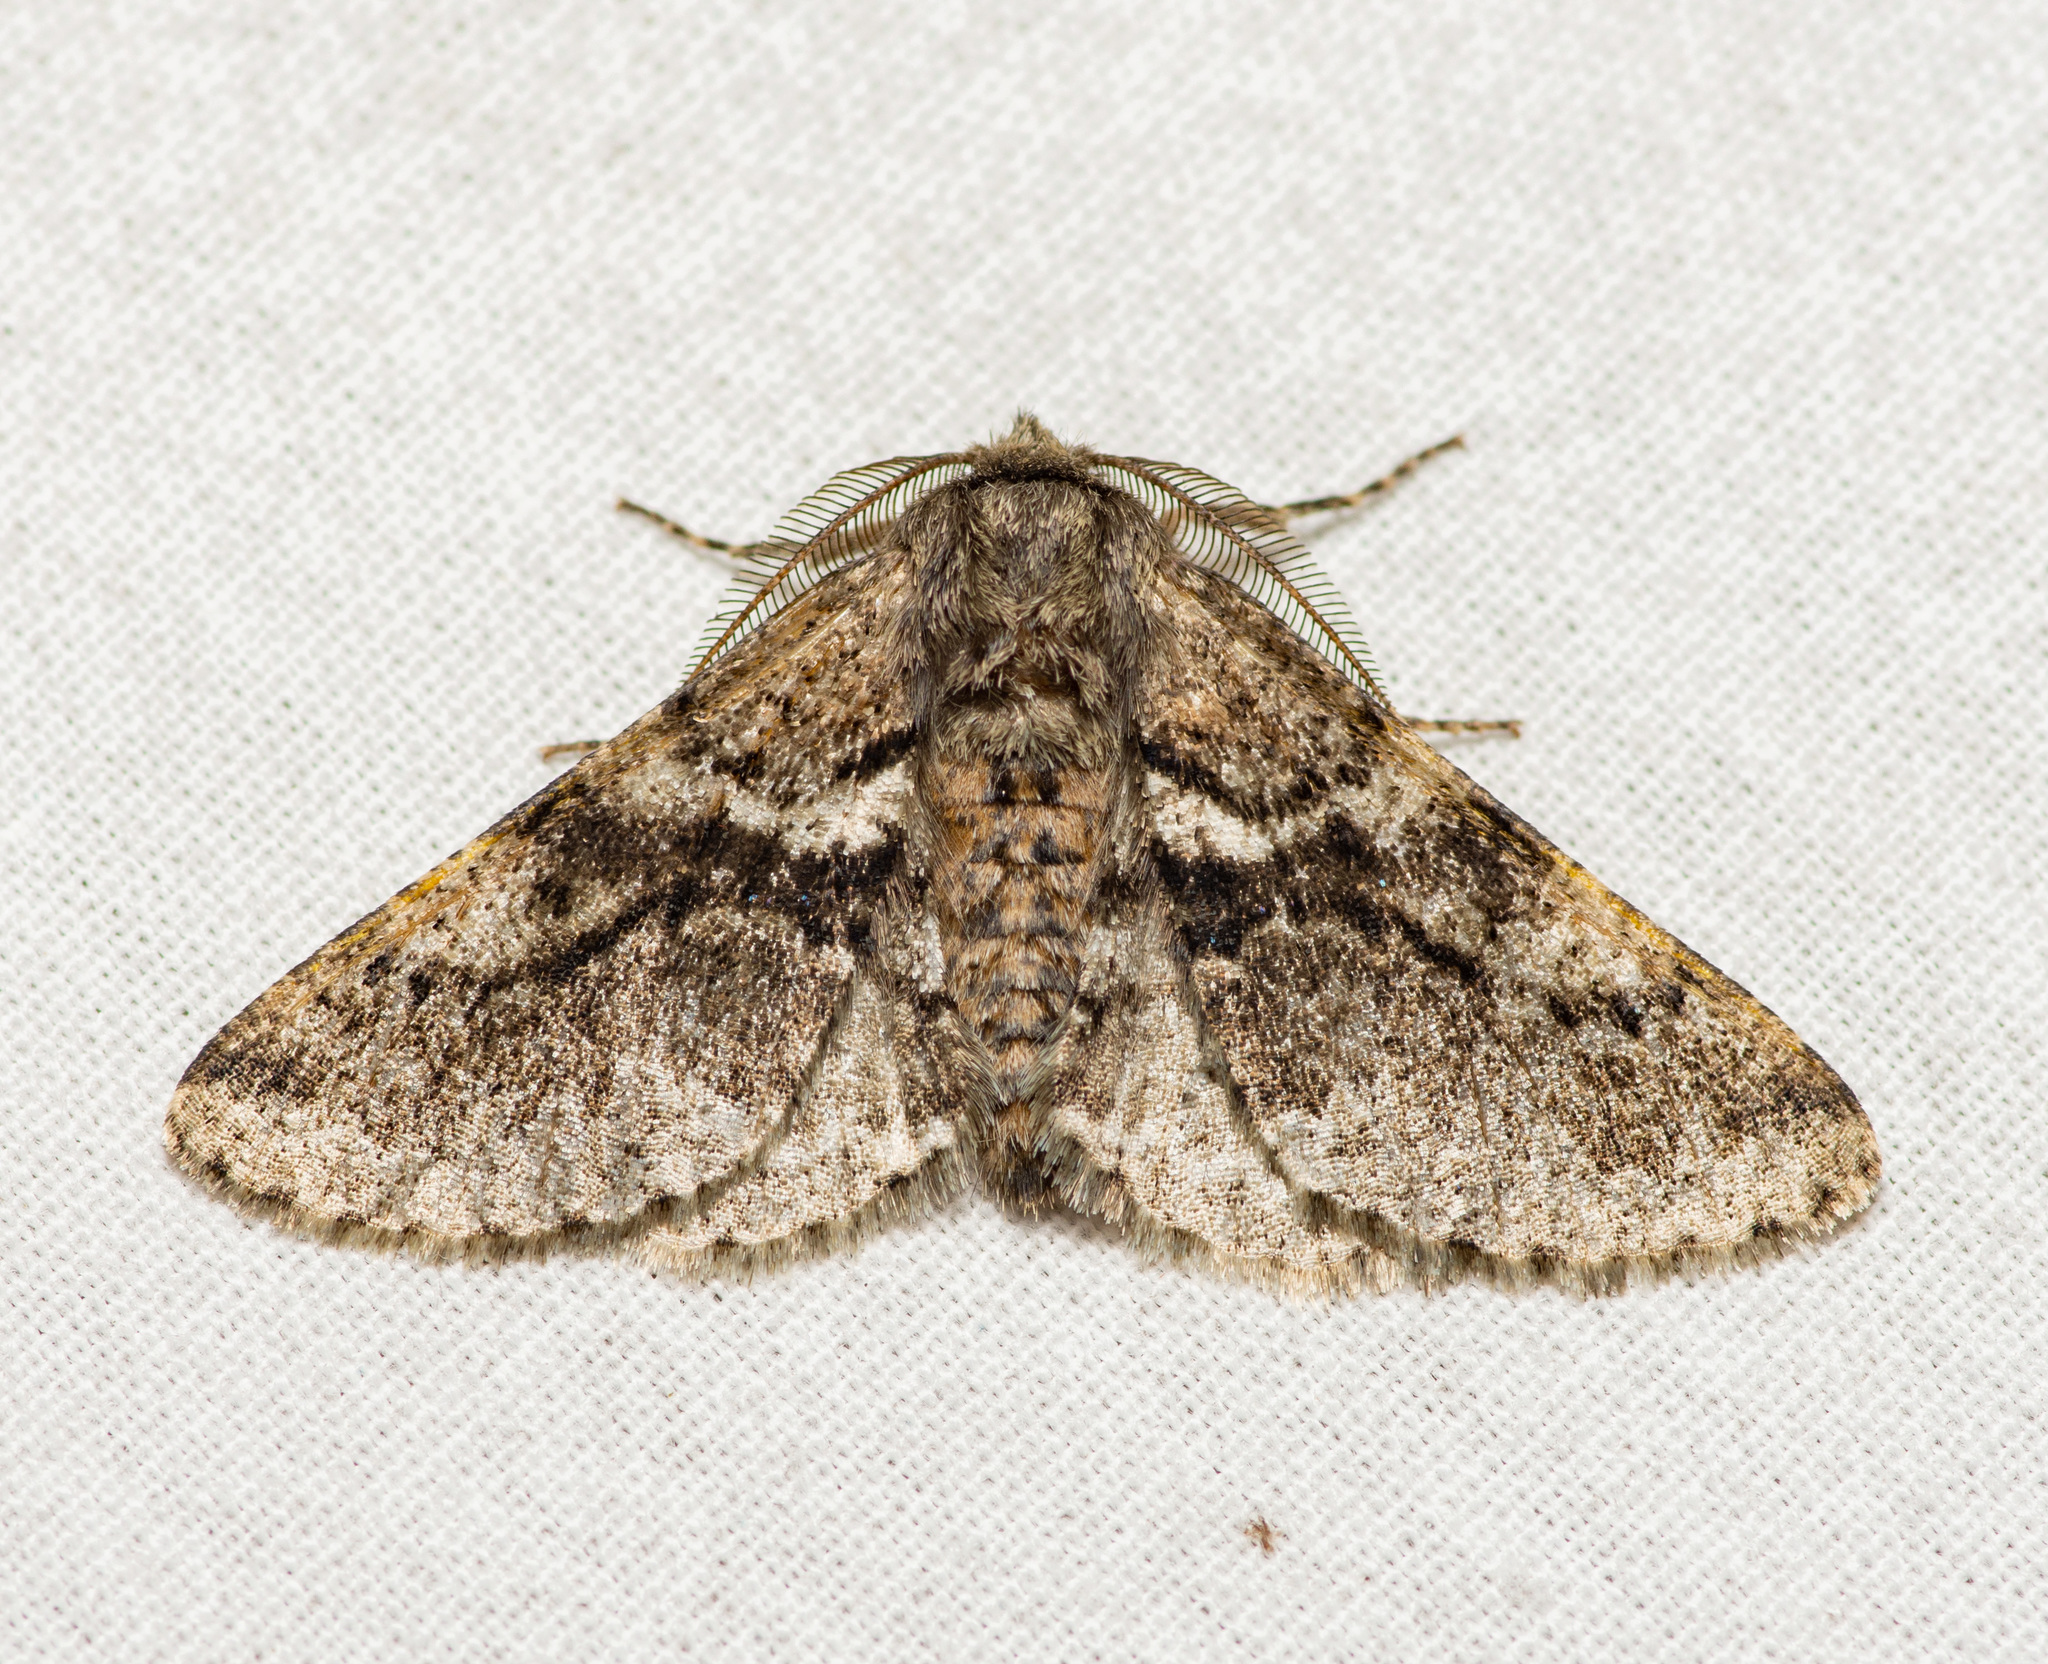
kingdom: Animalia
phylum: Arthropoda
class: Insecta
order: Lepidoptera
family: Geometridae
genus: Lycia
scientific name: Lycia ypsilon
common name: Wooly gray
